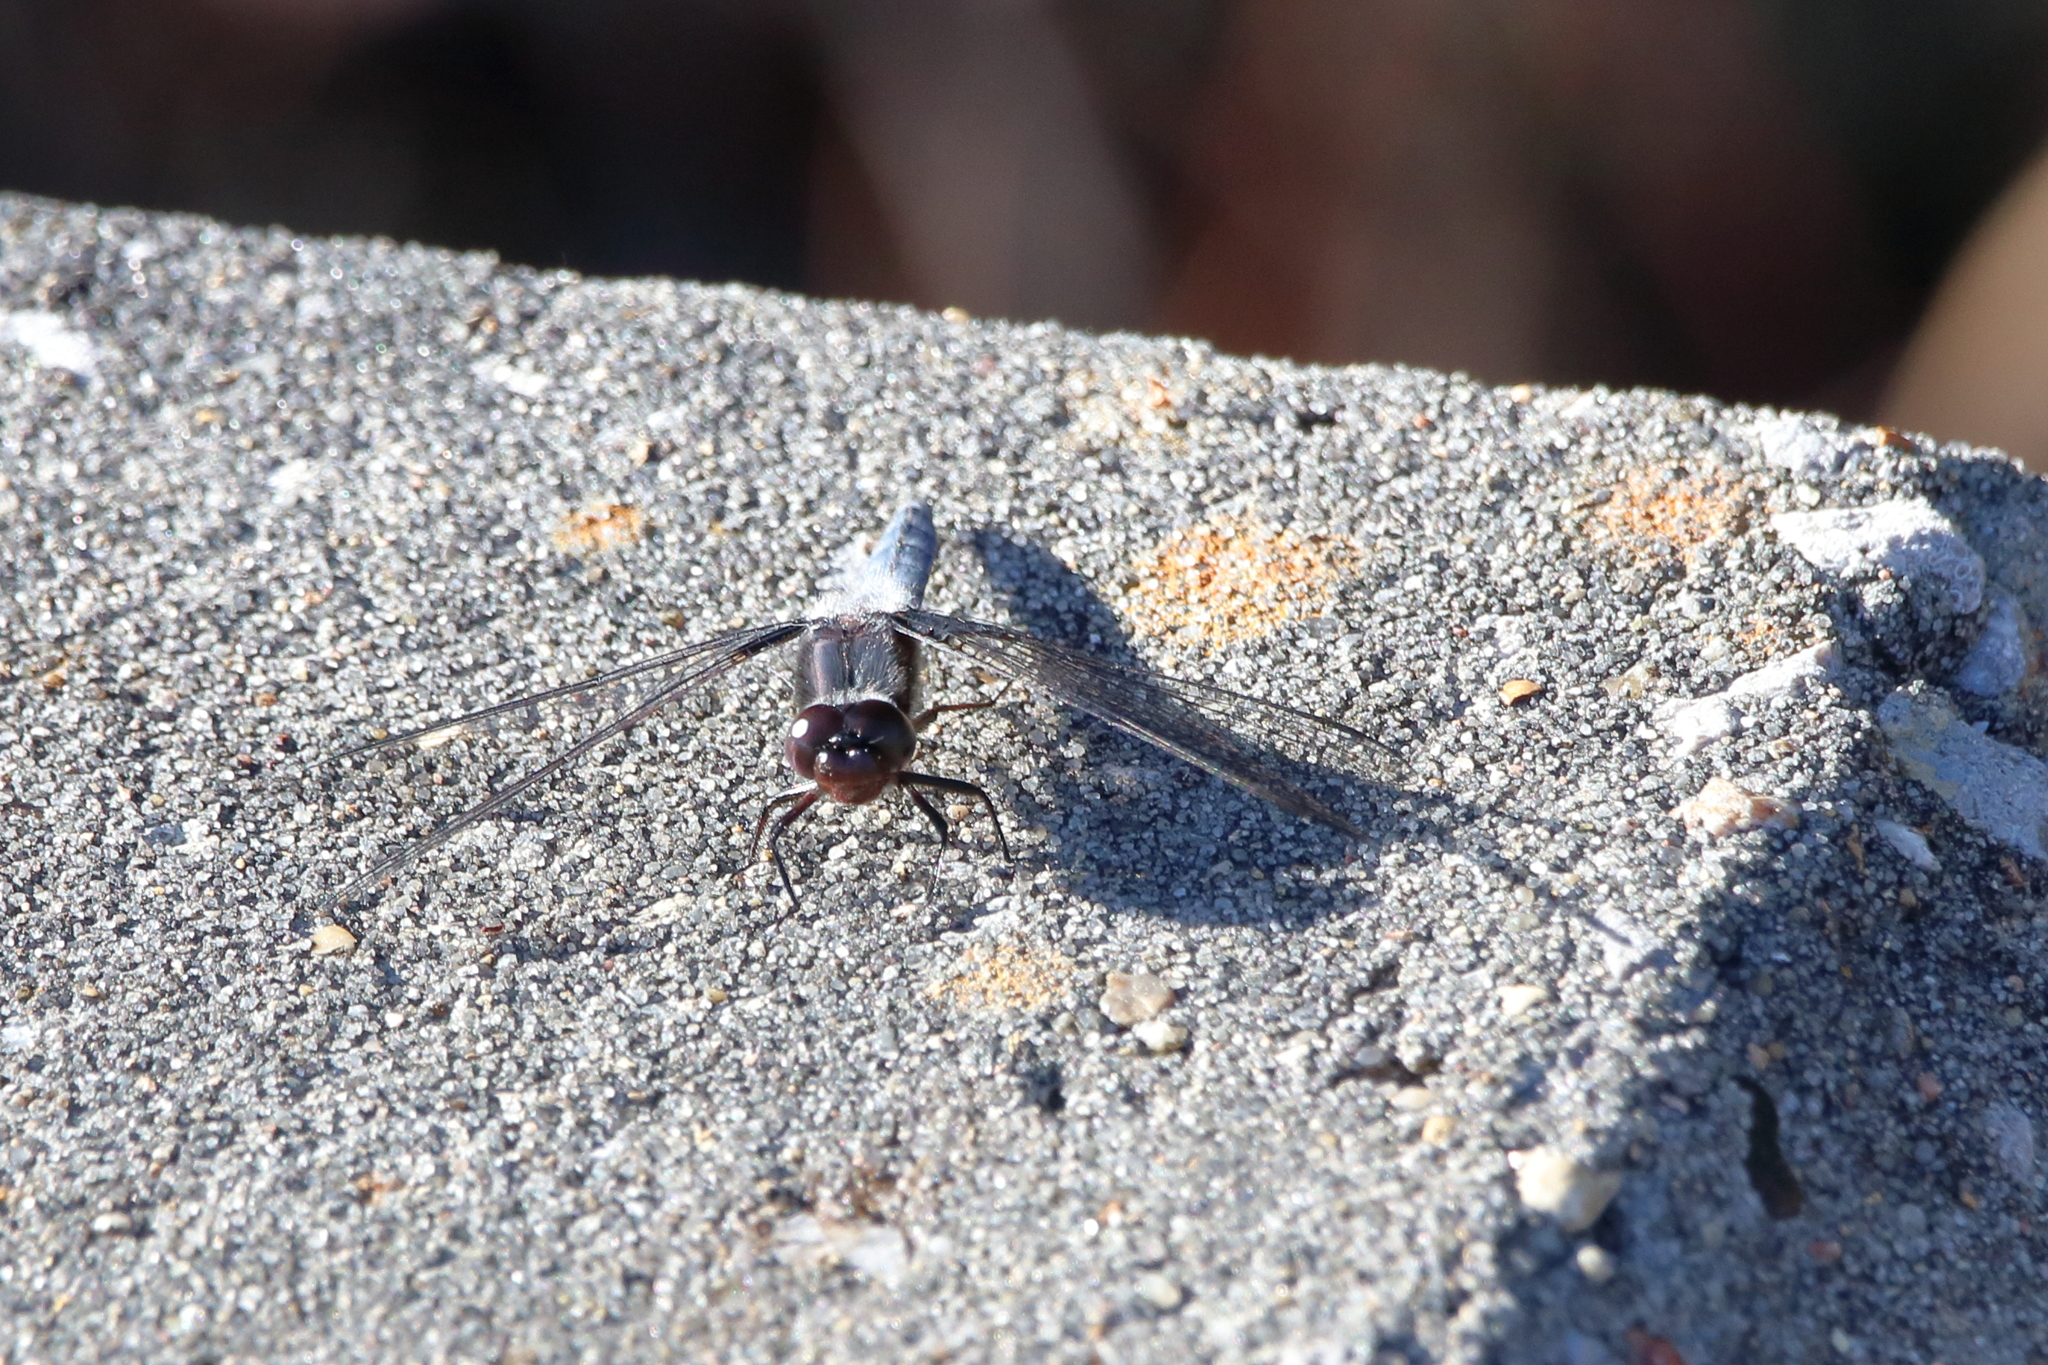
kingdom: Animalia
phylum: Arthropoda
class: Insecta
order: Odonata
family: Libellulidae
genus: Ladona
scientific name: Ladona deplanata
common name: Blue corporal
